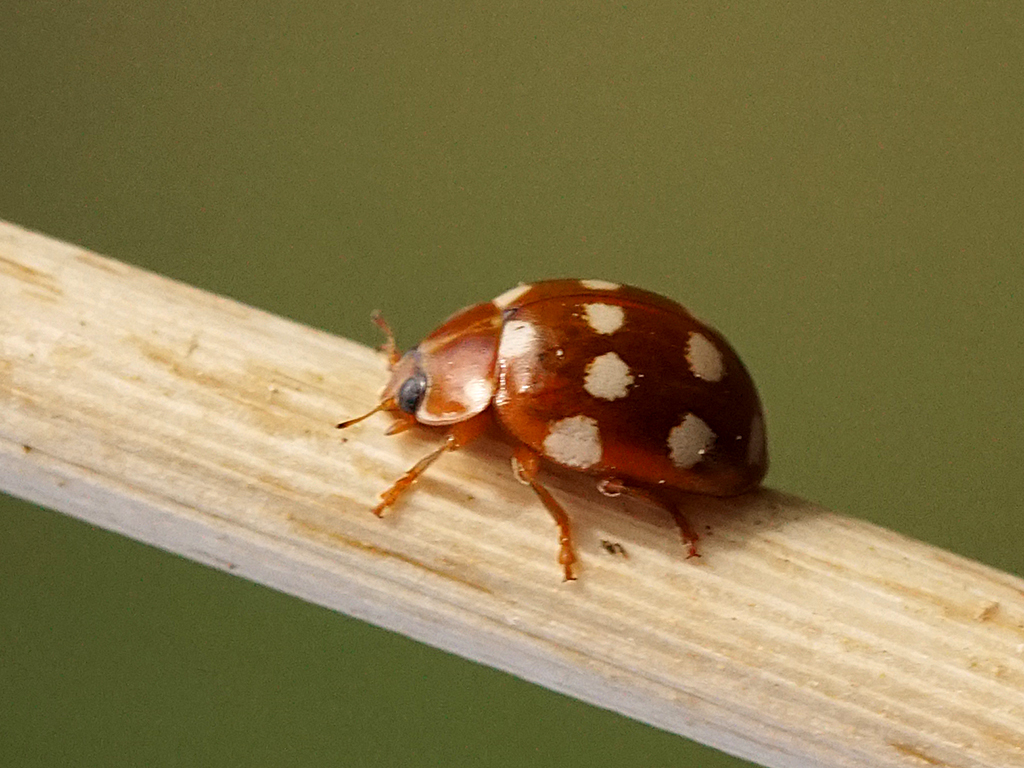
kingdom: Animalia
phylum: Arthropoda
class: Insecta
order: Coleoptera
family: Coccinellidae
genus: Calvia
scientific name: Calvia quatuordecimguttata
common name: Cream-spot ladybird
